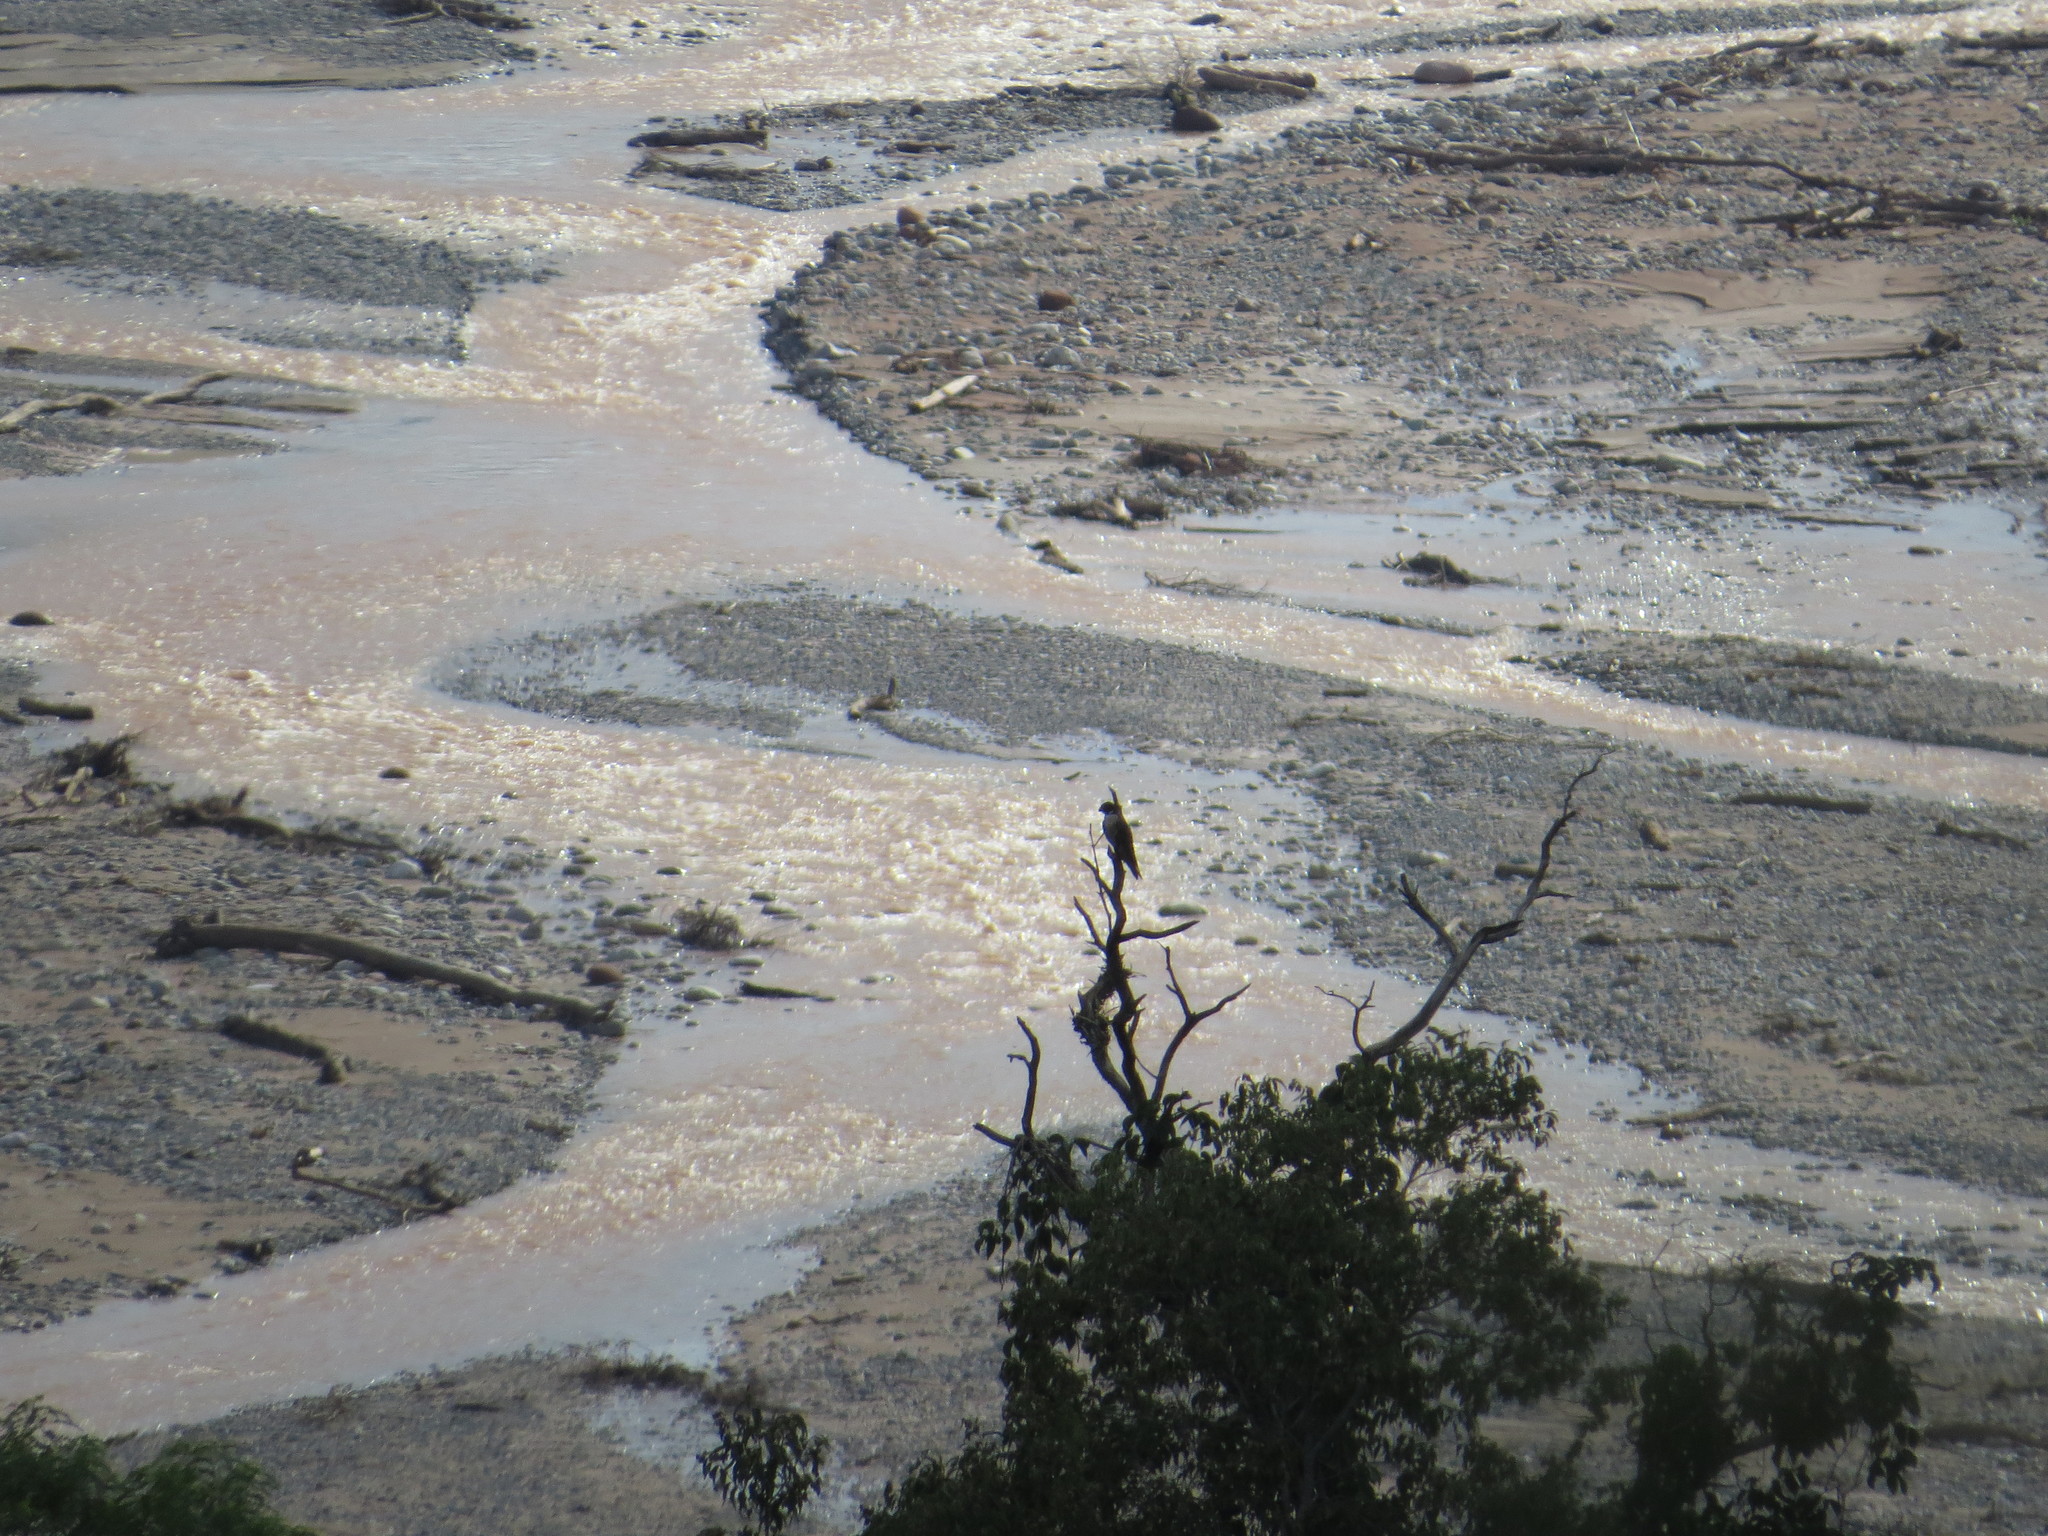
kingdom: Animalia
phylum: Chordata
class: Aves
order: Falconiformes
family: Falconidae
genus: Falco
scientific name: Falco peregrinus
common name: Peregrine falcon
